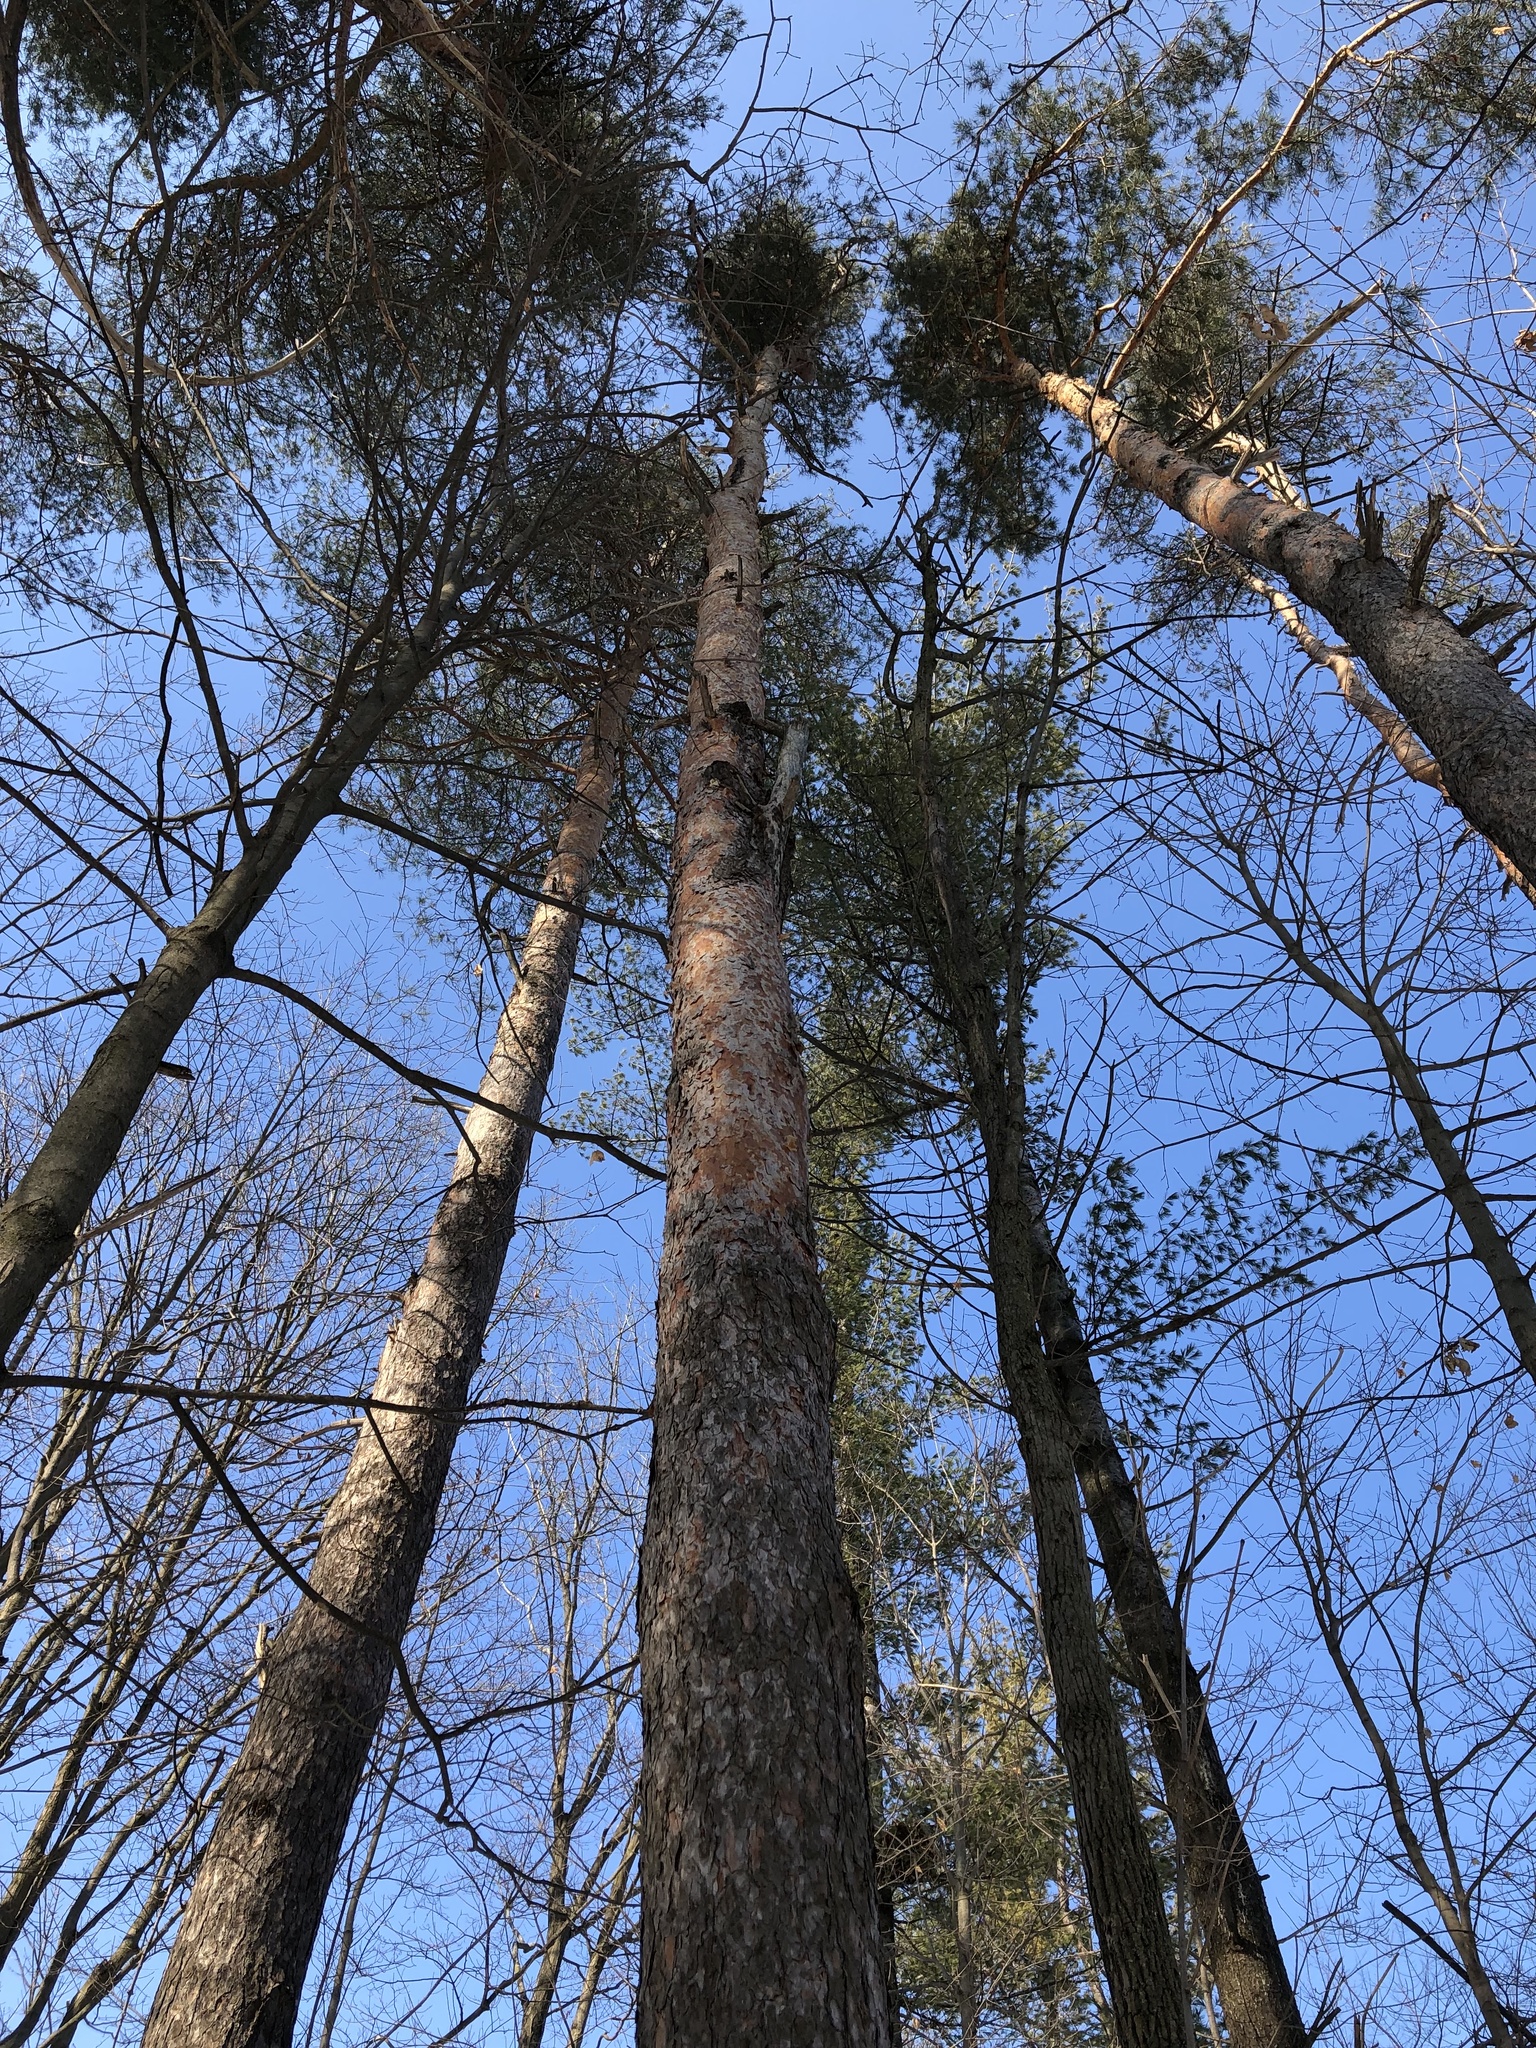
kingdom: Plantae
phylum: Tracheophyta
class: Pinopsida
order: Pinales
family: Pinaceae
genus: Pinus
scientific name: Pinus sylvestris
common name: Scots pine
